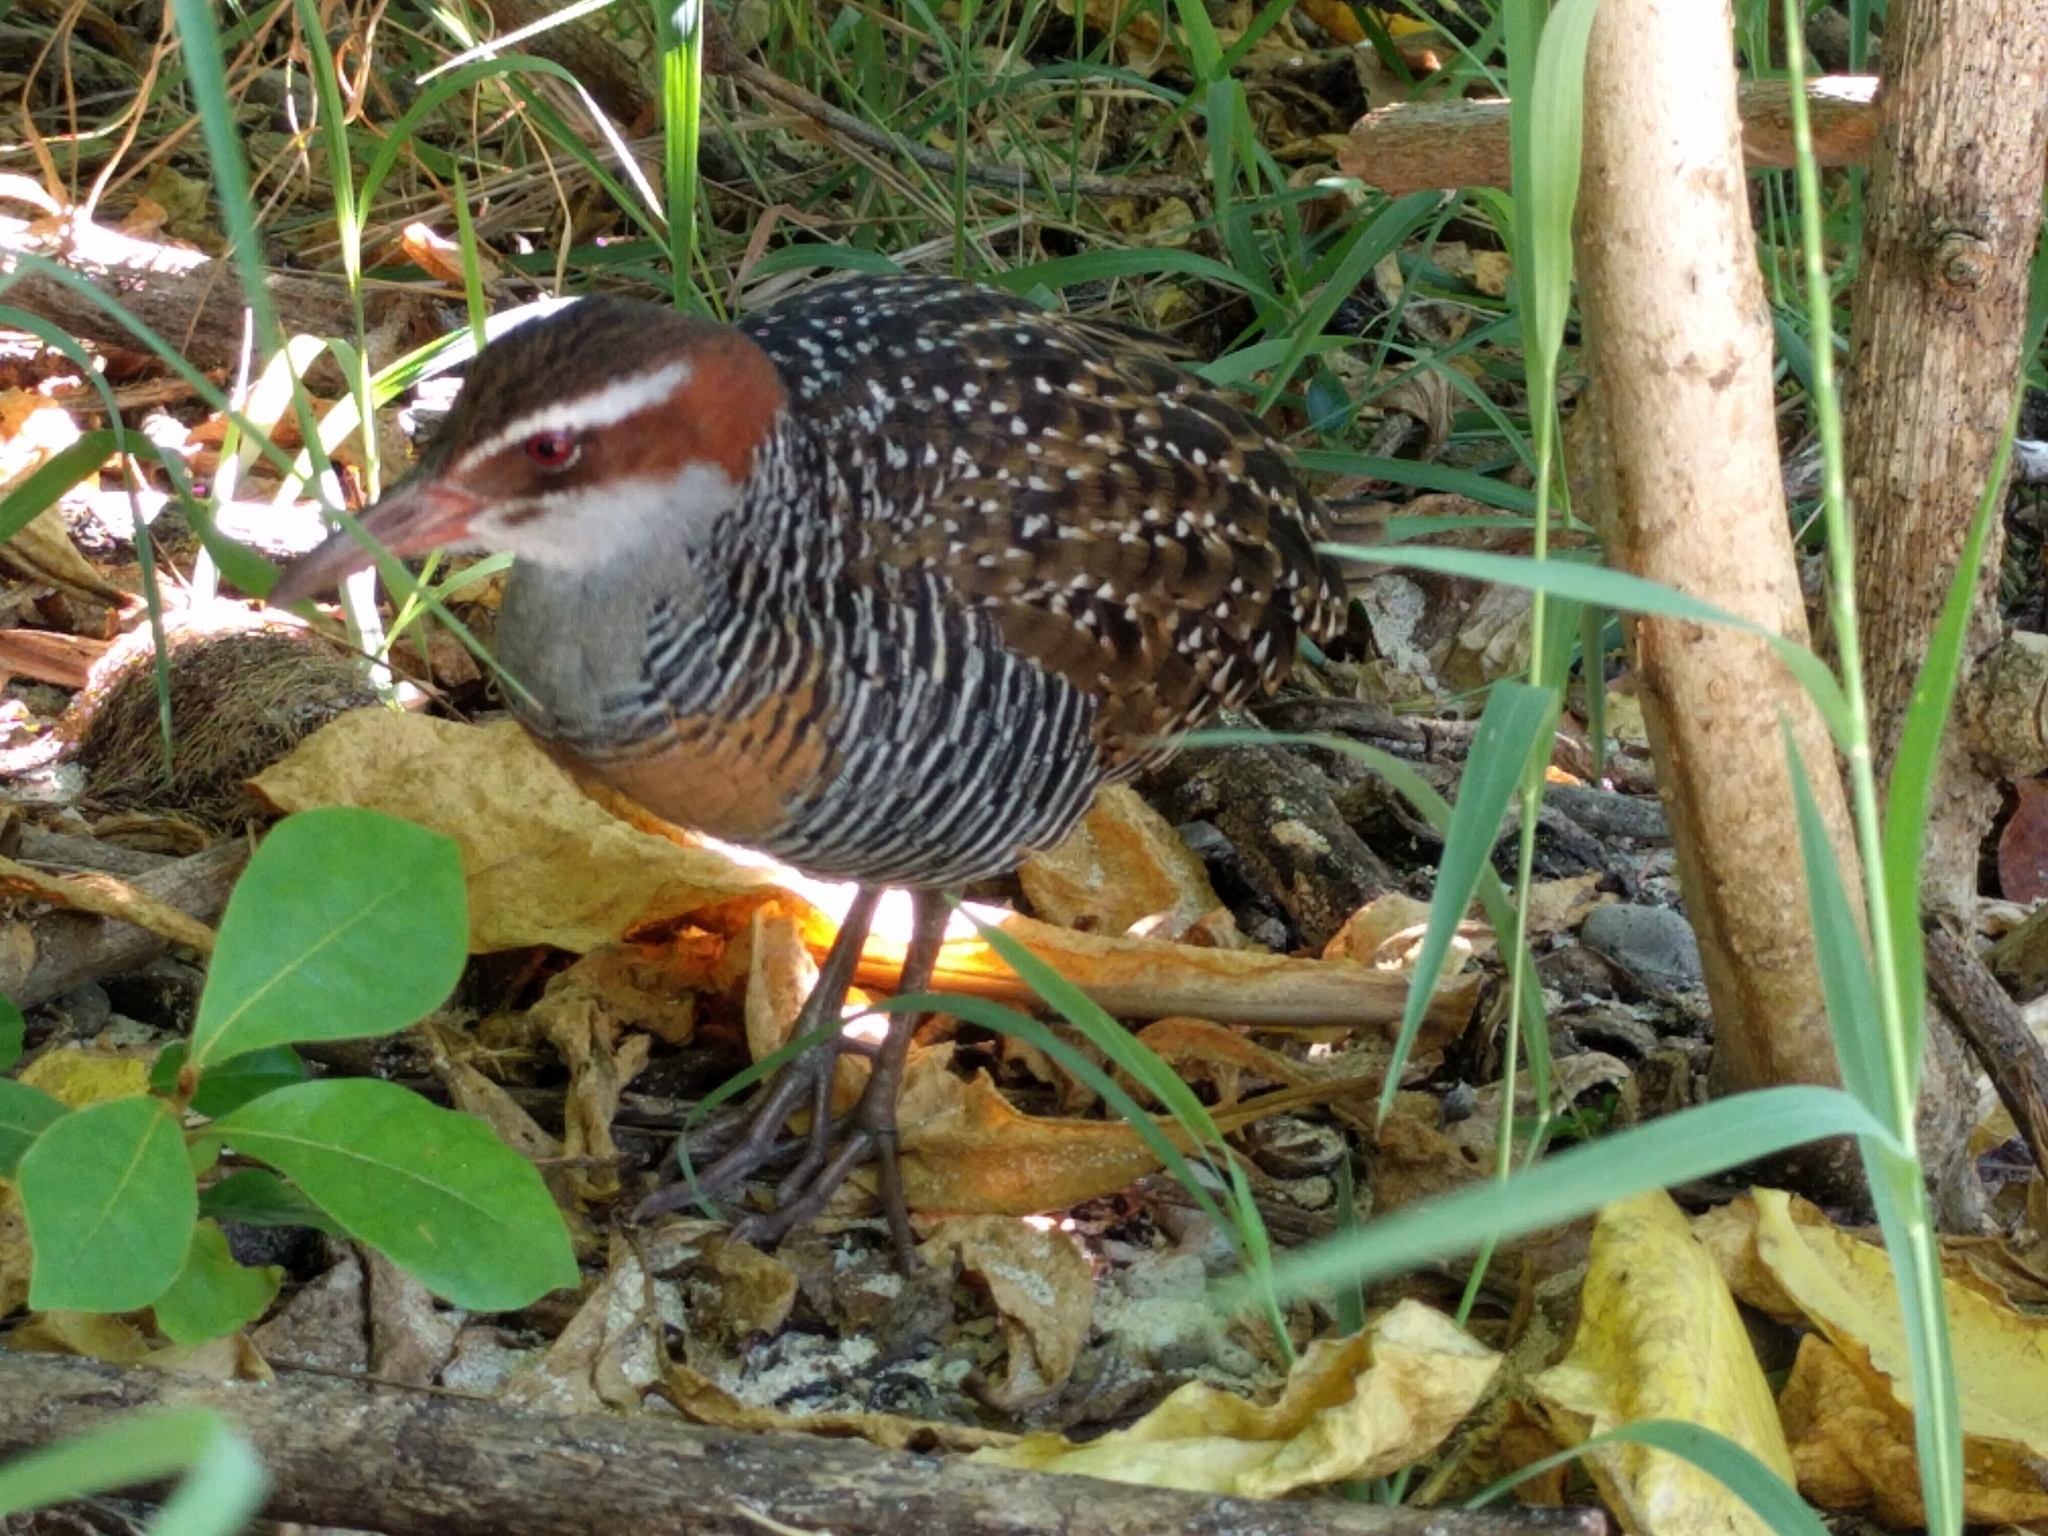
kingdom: Animalia
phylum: Chordata
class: Aves
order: Gruiformes
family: Rallidae
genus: Gallirallus
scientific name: Gallirallus philippensis
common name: Buff-banded rail
